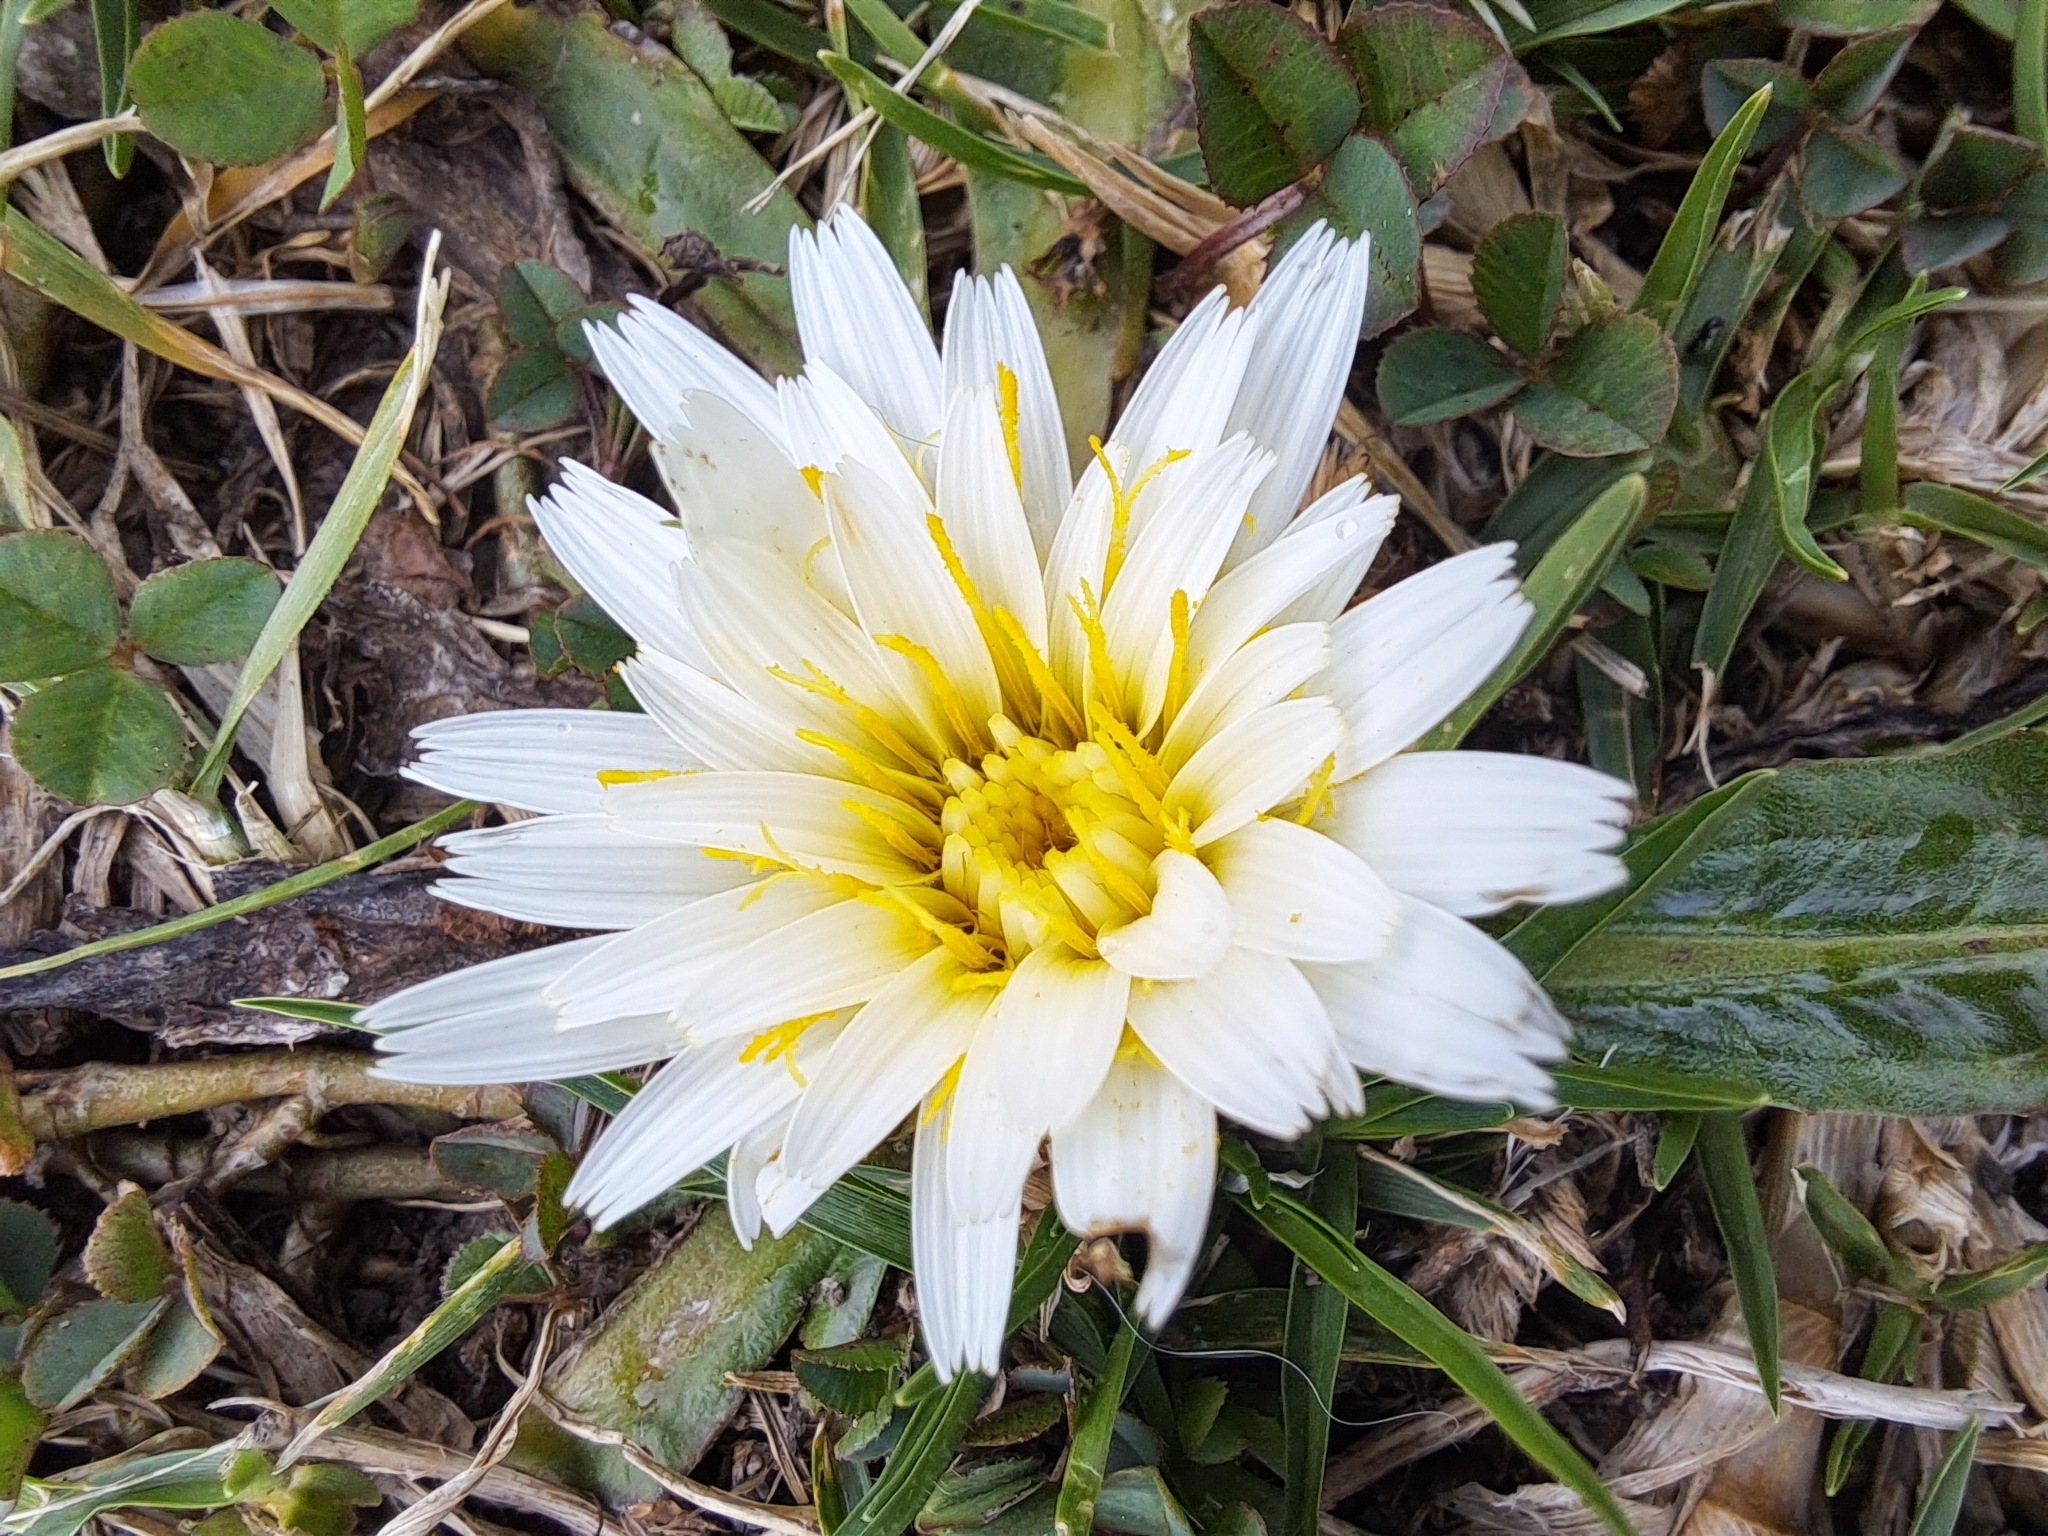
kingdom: Plantae
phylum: Tracheophyta
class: Magnoliopsida
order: Asterales
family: Asteraceae
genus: Hypochaeris
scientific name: Hypochaeris sessiliflora
